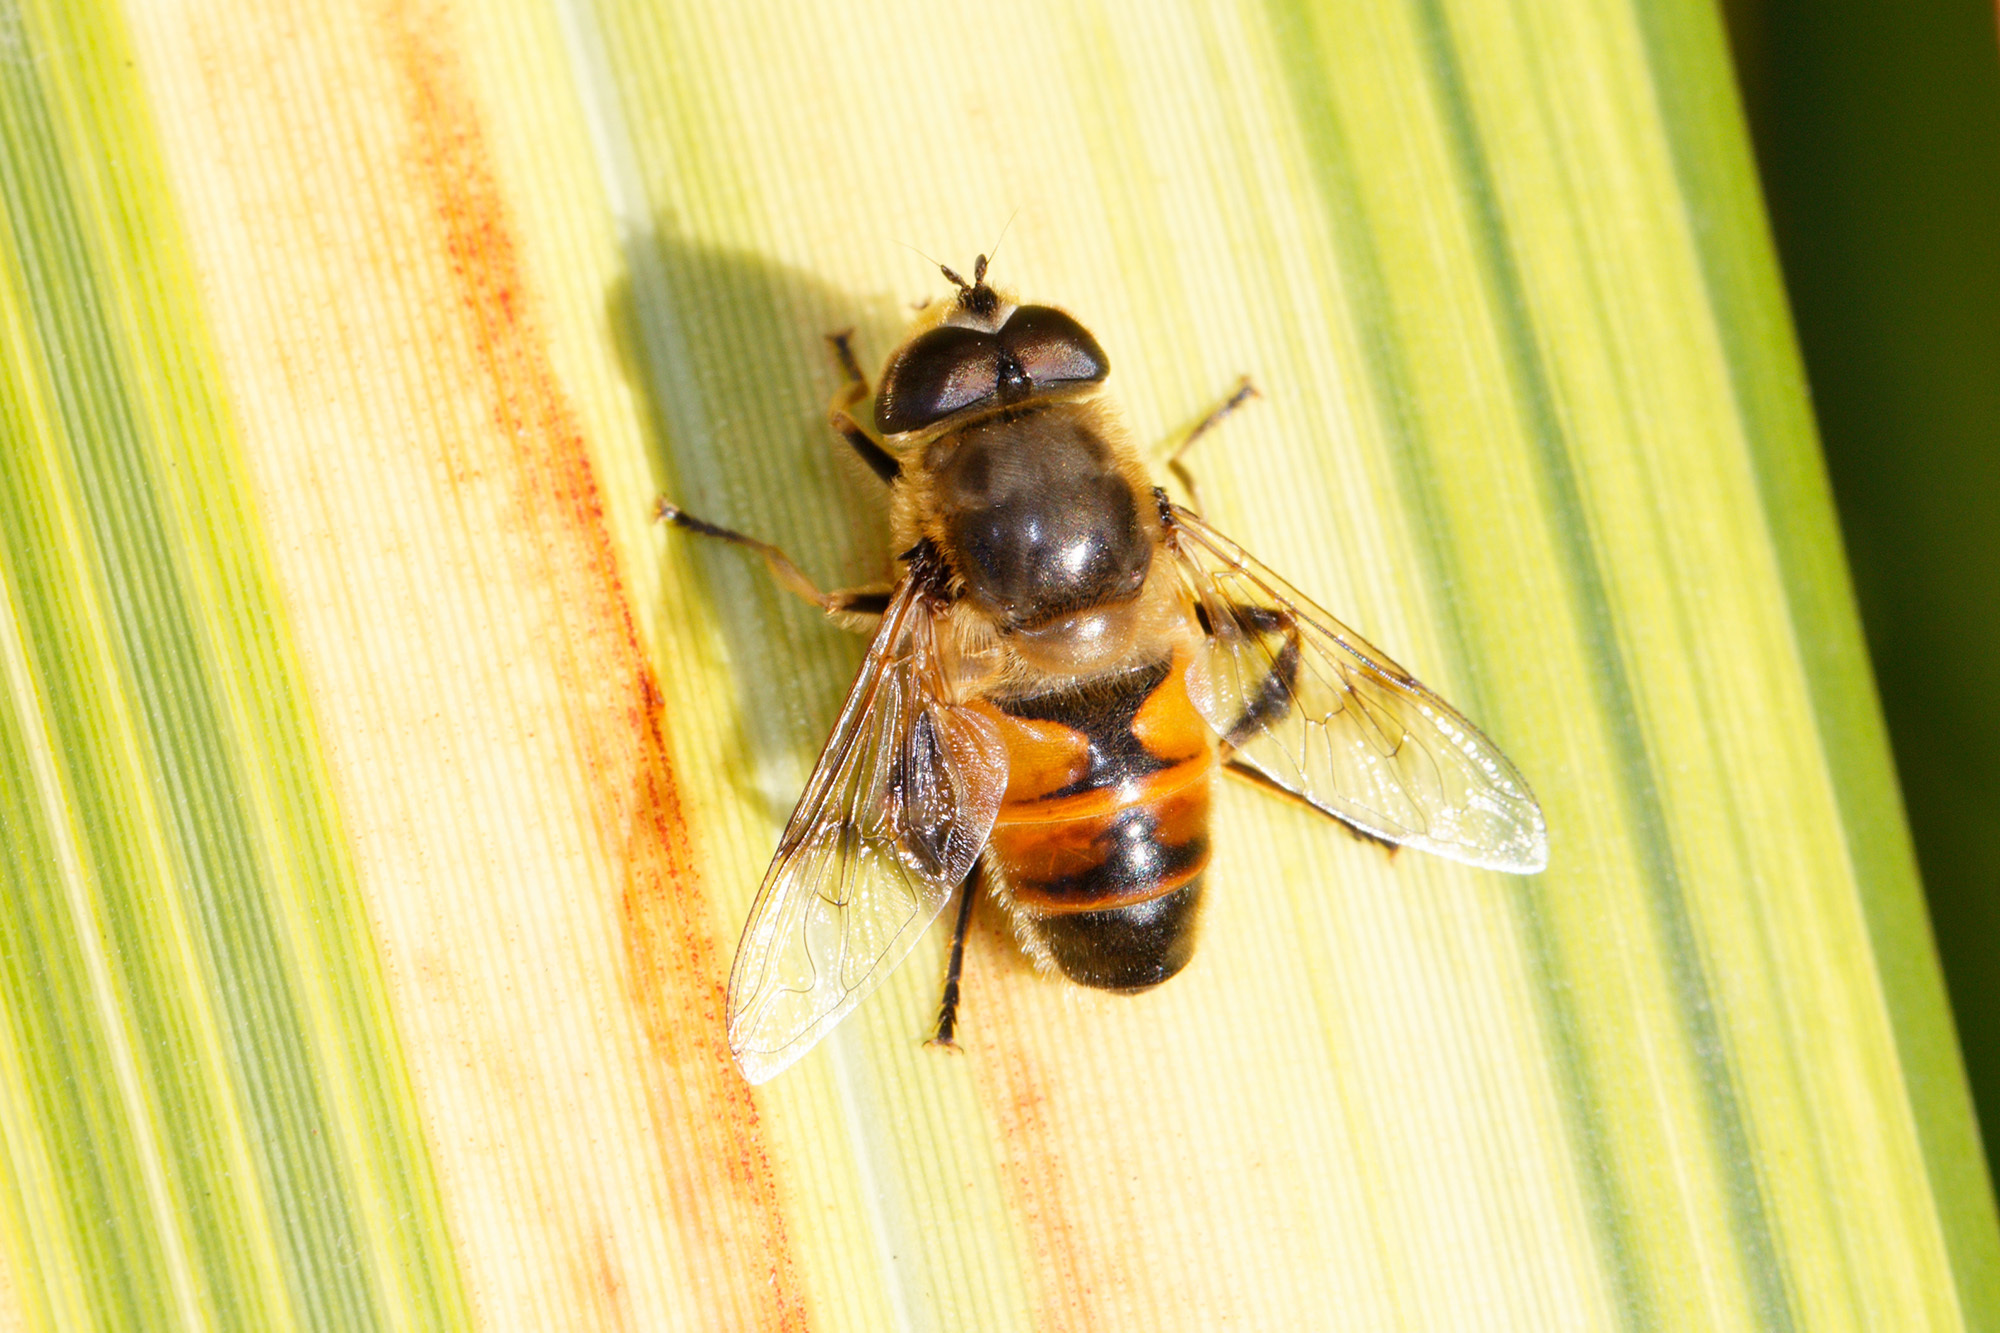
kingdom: Animalia
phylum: Arthropoda
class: Insecta
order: Diptera
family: Syrphidae
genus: Eristalis
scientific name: Eristalis tenax
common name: Drone fly
